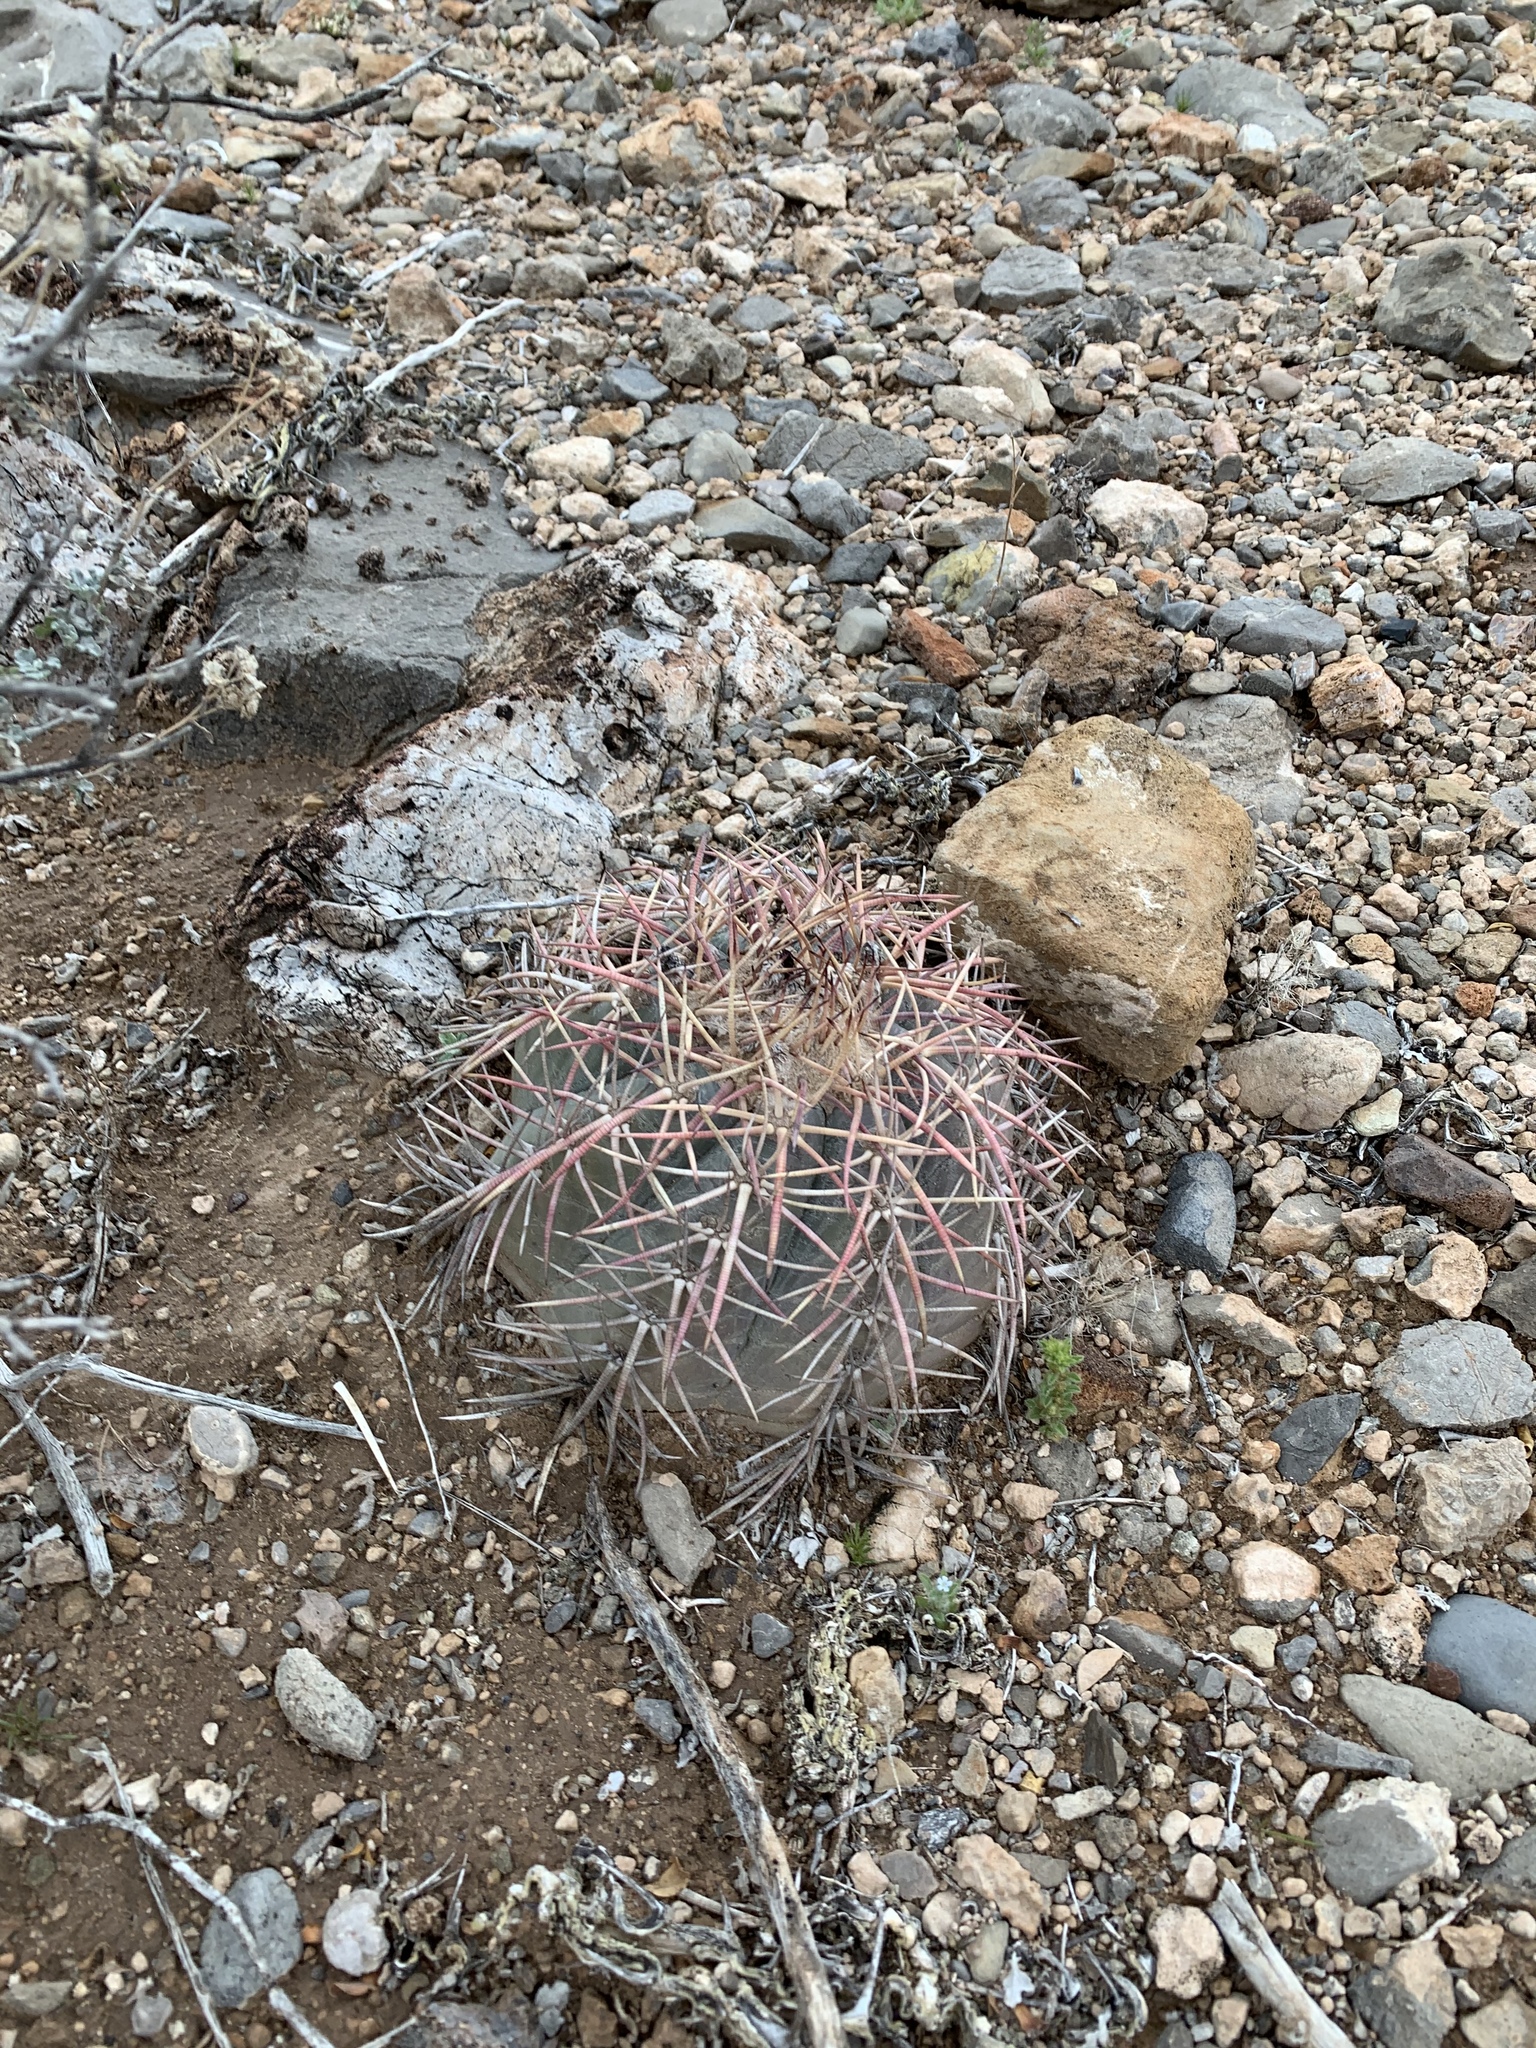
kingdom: Plantae
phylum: Tracheophyta
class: Magnoliopsida
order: Caryophyllales
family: Cactaceae
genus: Echinocactus
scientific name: Echinocactus horizonthalonius
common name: Devilshead
